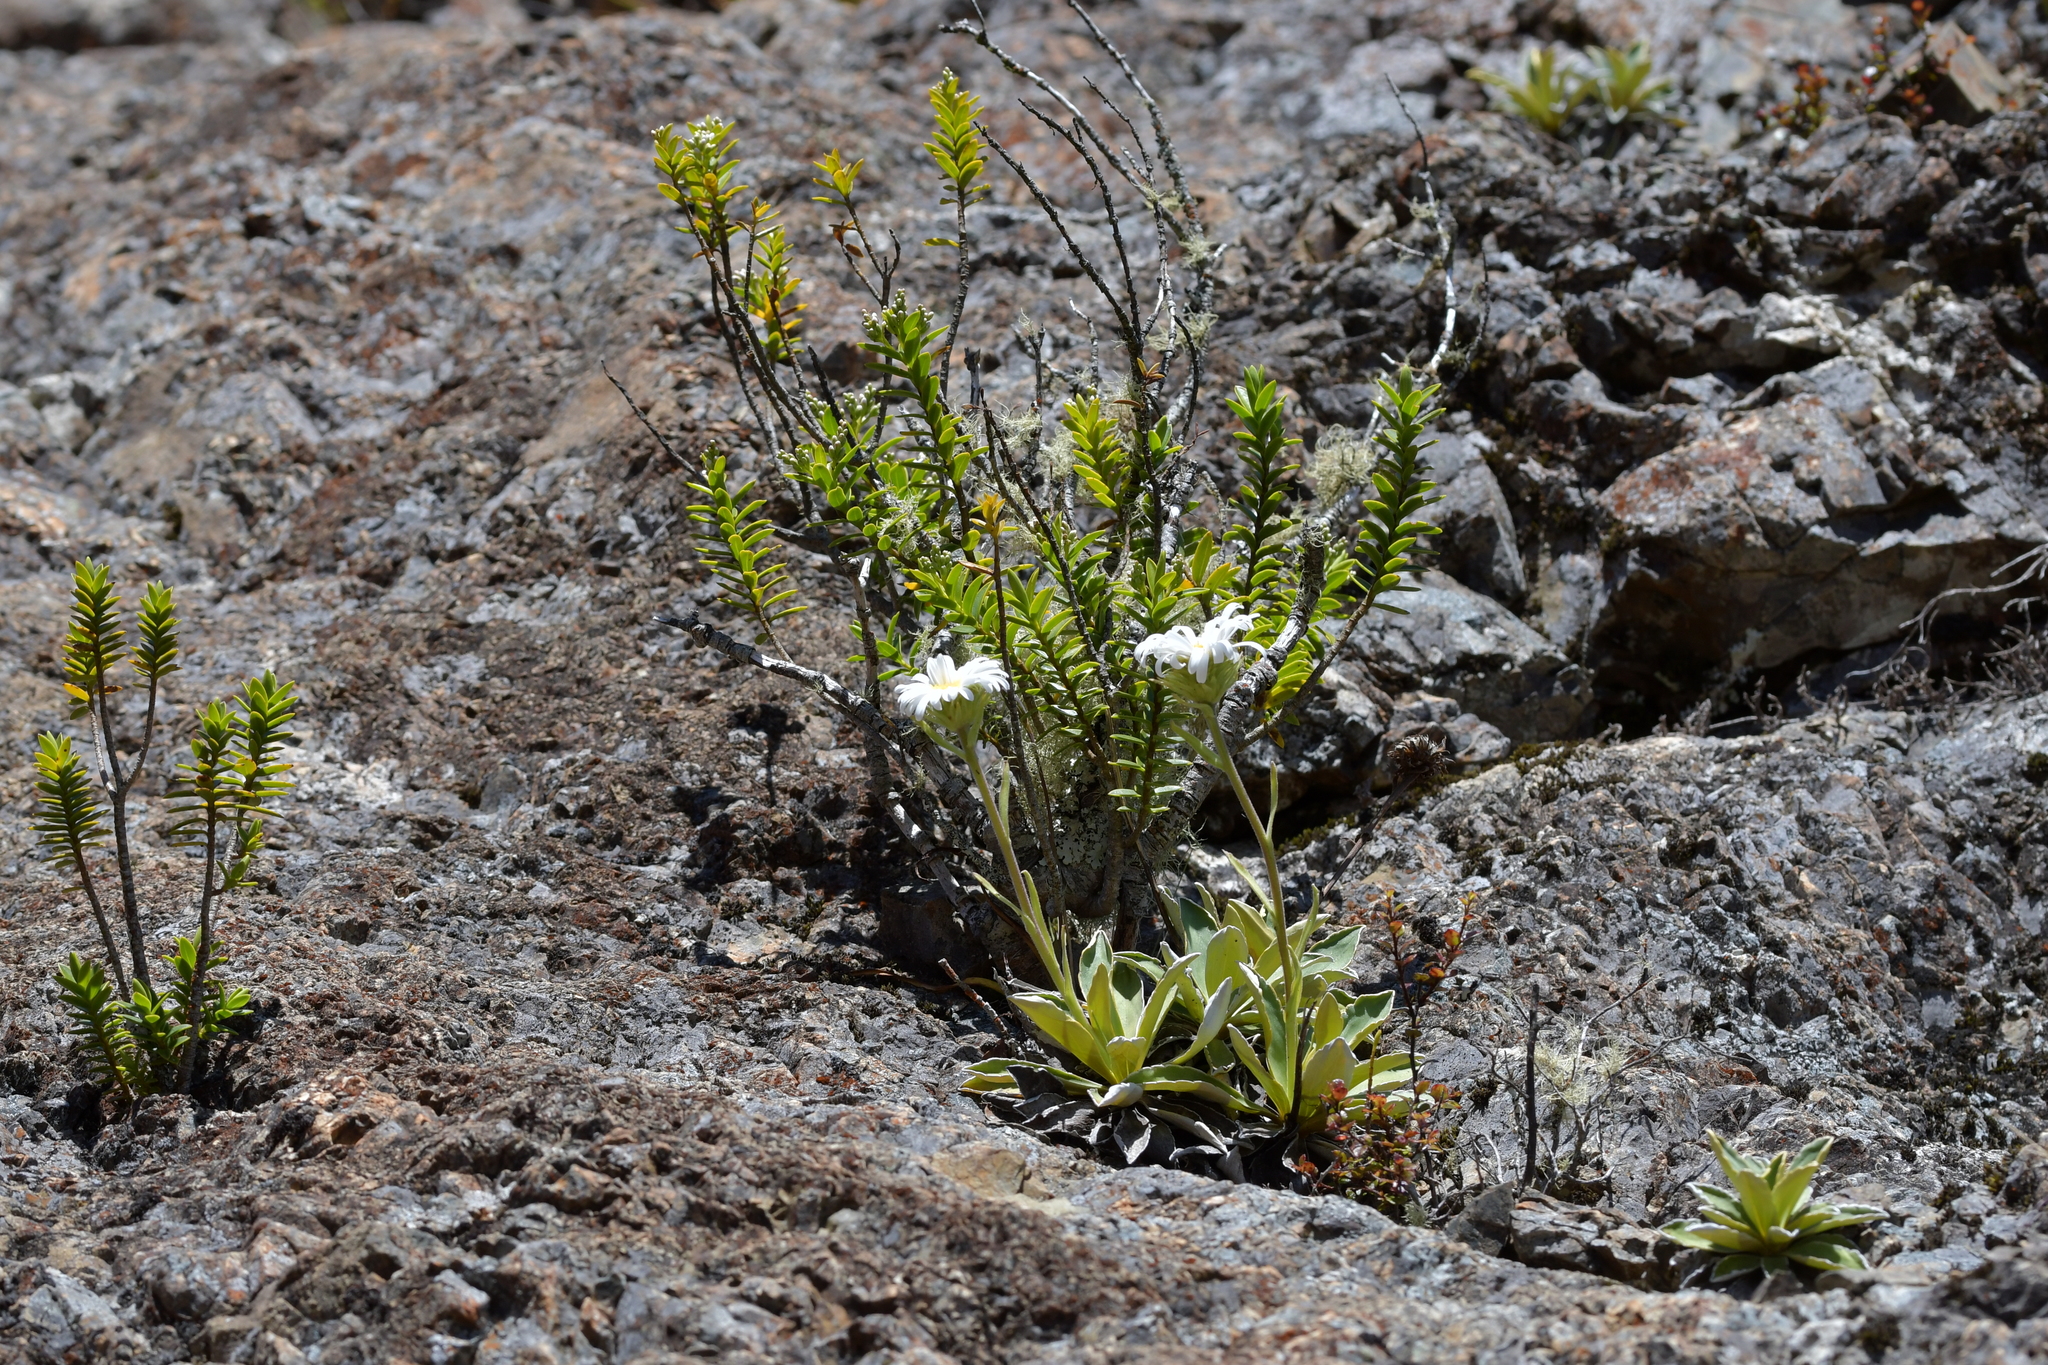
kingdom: Plantae
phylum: Tracheophyta
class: Magnoliopsida
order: Asterales
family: Asteraceae
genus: Celmisia
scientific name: Celmisia hieraciifolia
